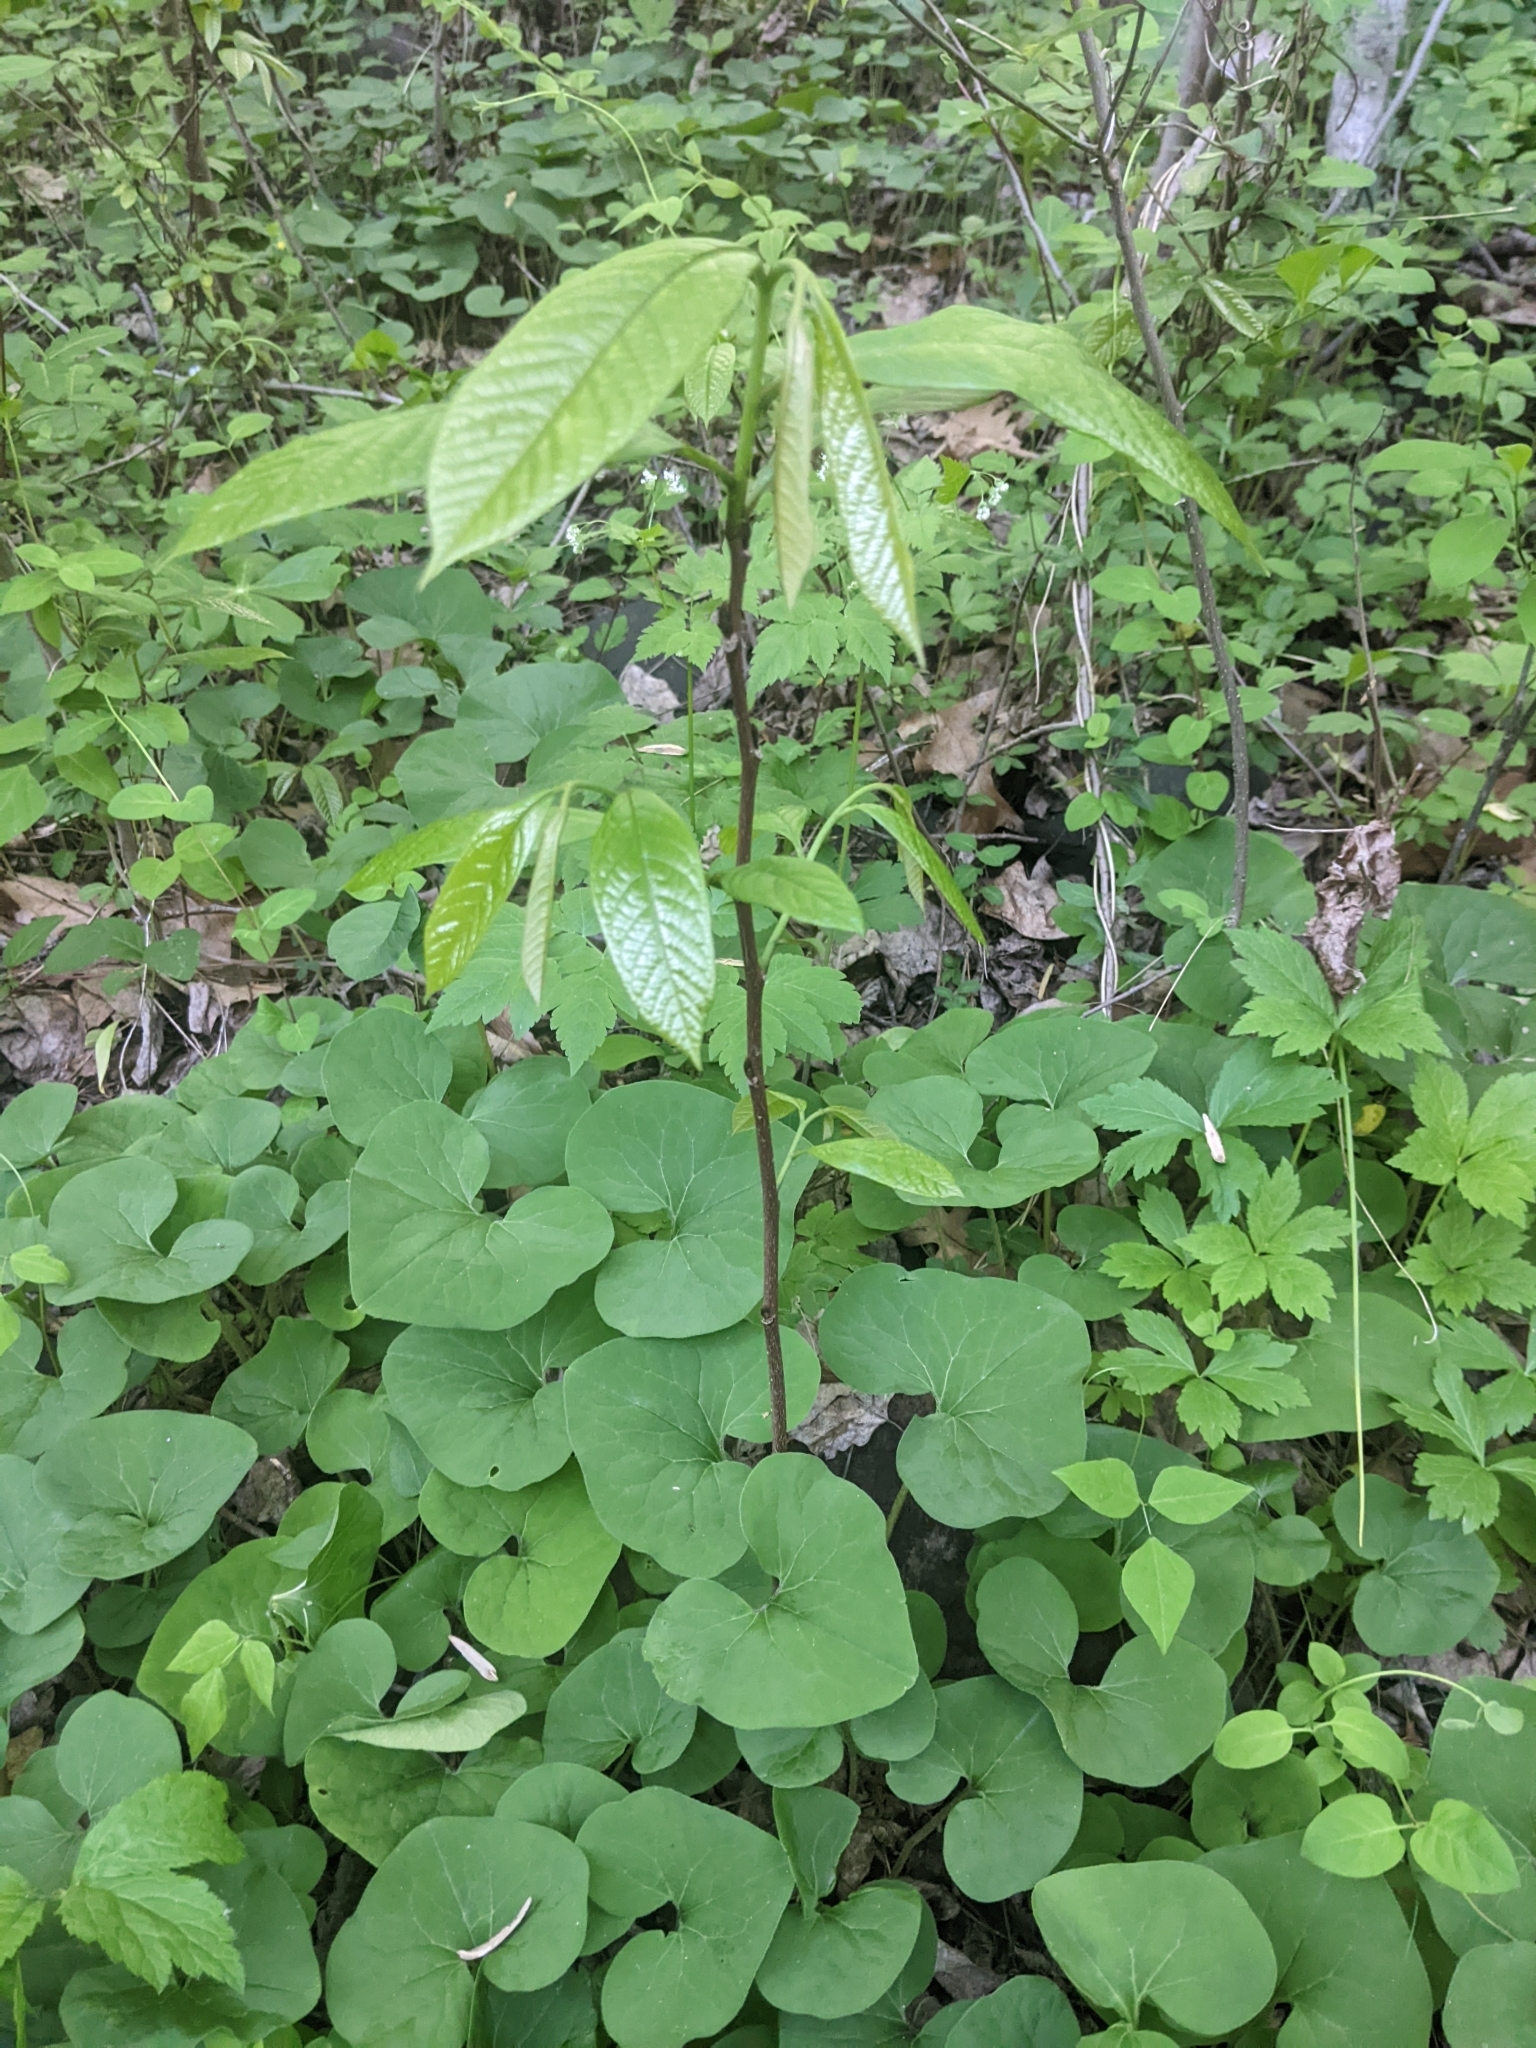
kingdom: Plantae
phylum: Tracheophyta
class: Magnoliopsida
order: Magnoliales
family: Annonaceae
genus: Asimina
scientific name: Asimina triloba
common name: Dog-banana
